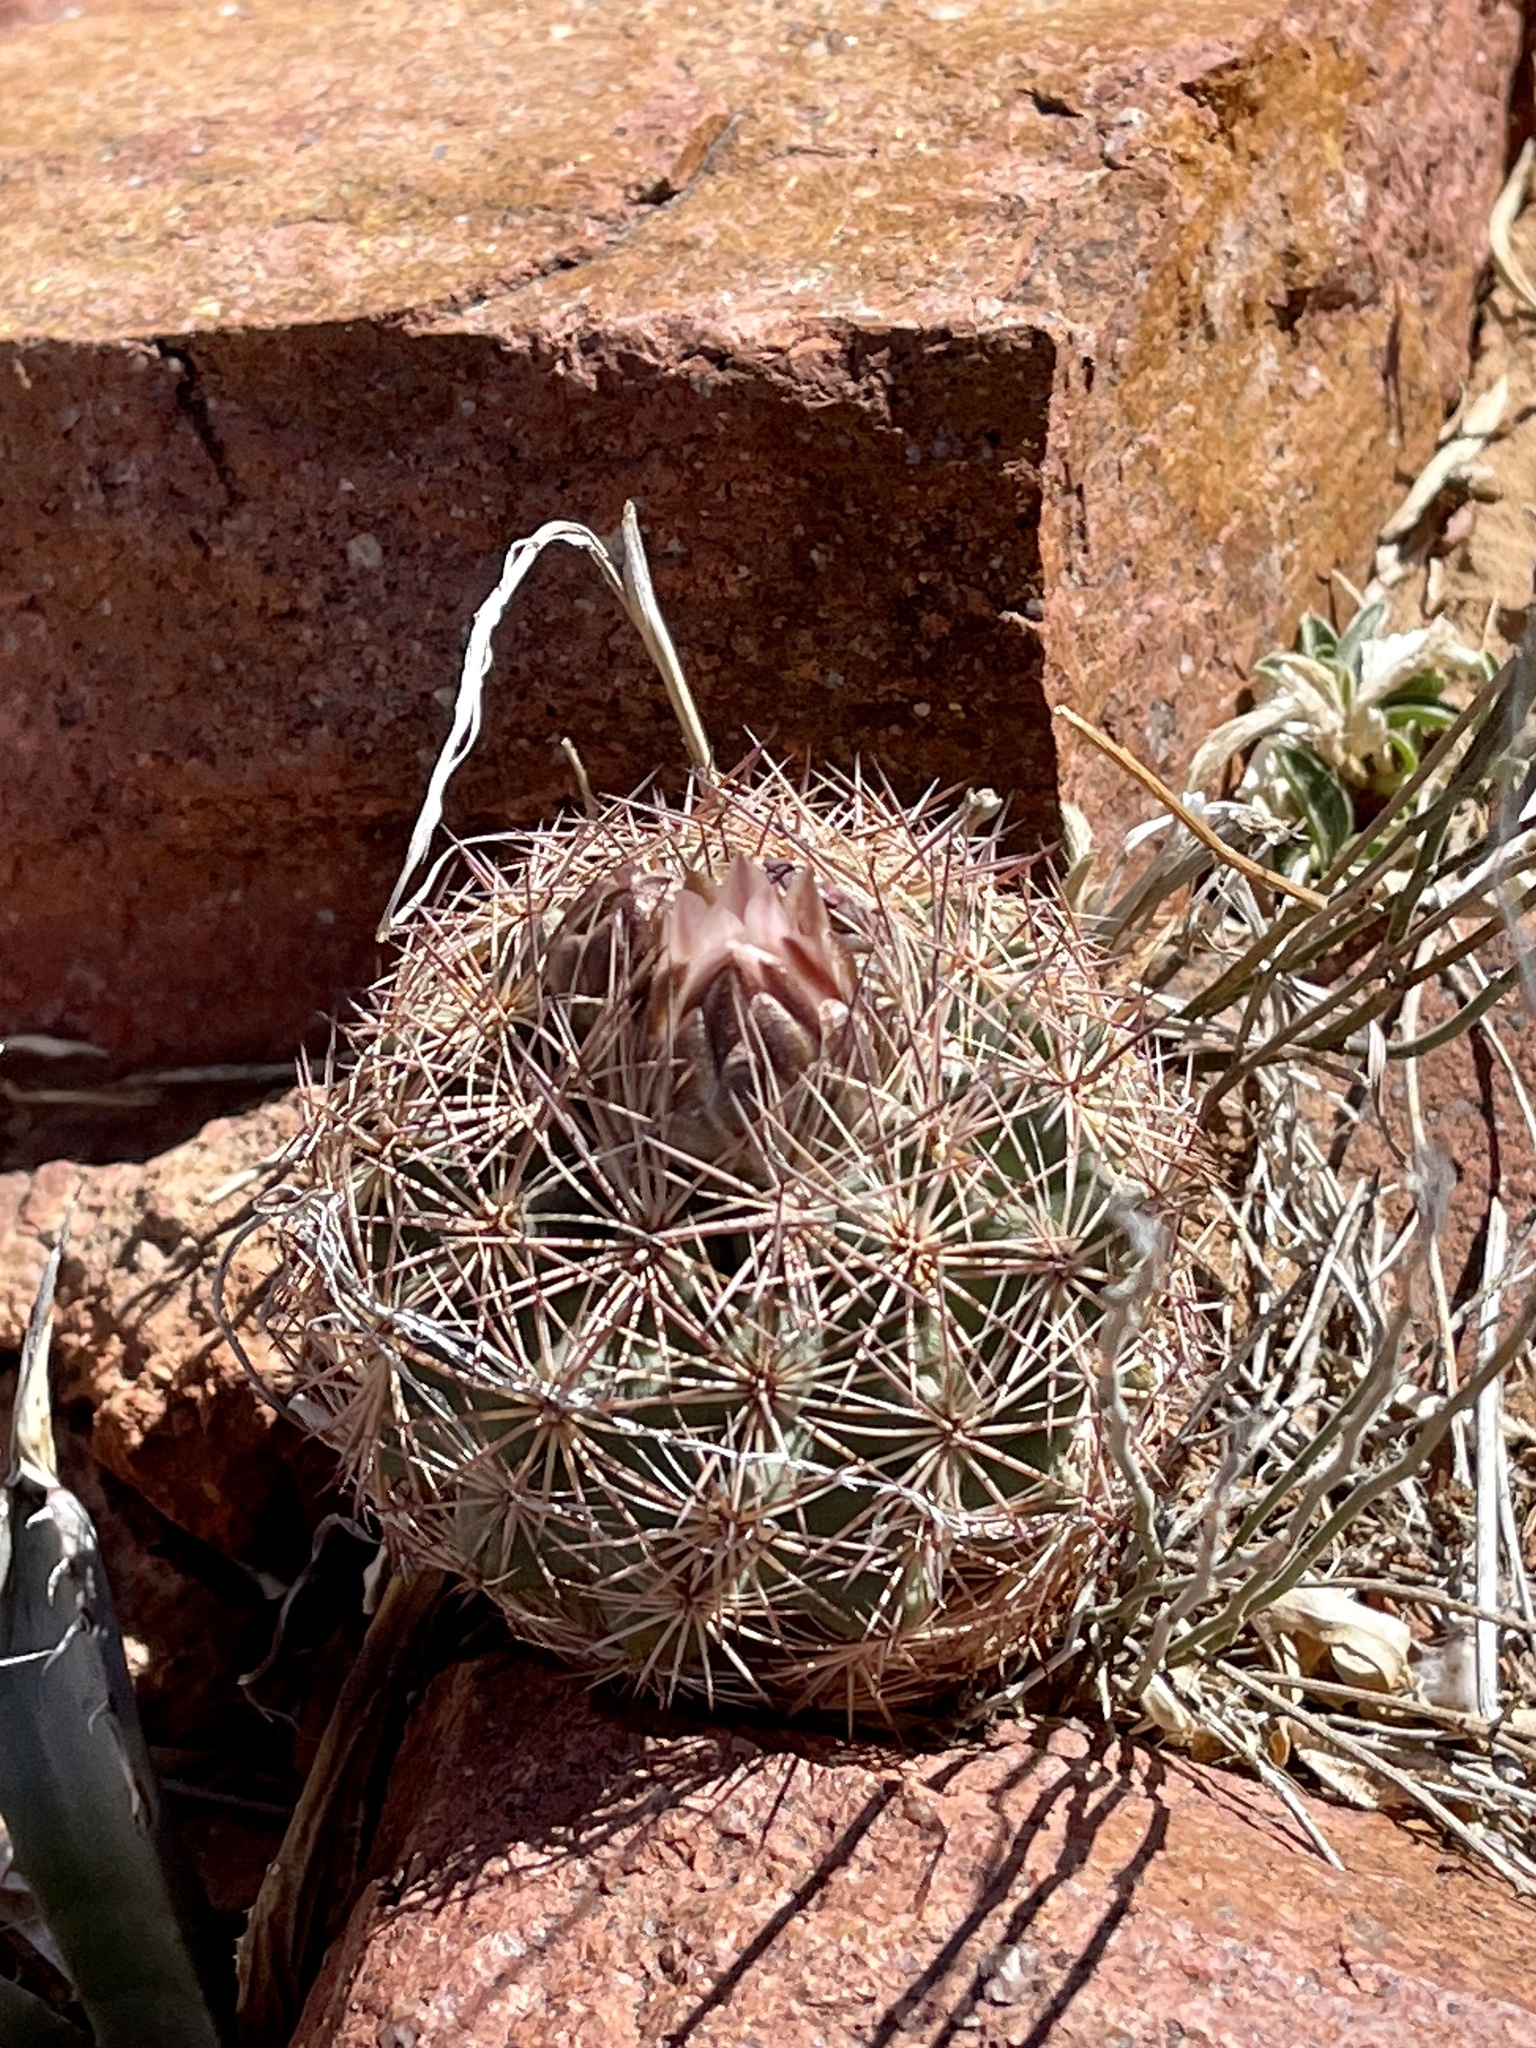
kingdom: Plantae
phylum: Tracheophyta
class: Magnoliopsida
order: Caryophyllales
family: Cactaceae
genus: Sclerocactus
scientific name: Sclerocactus intertextus
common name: White fish-hook cactus
